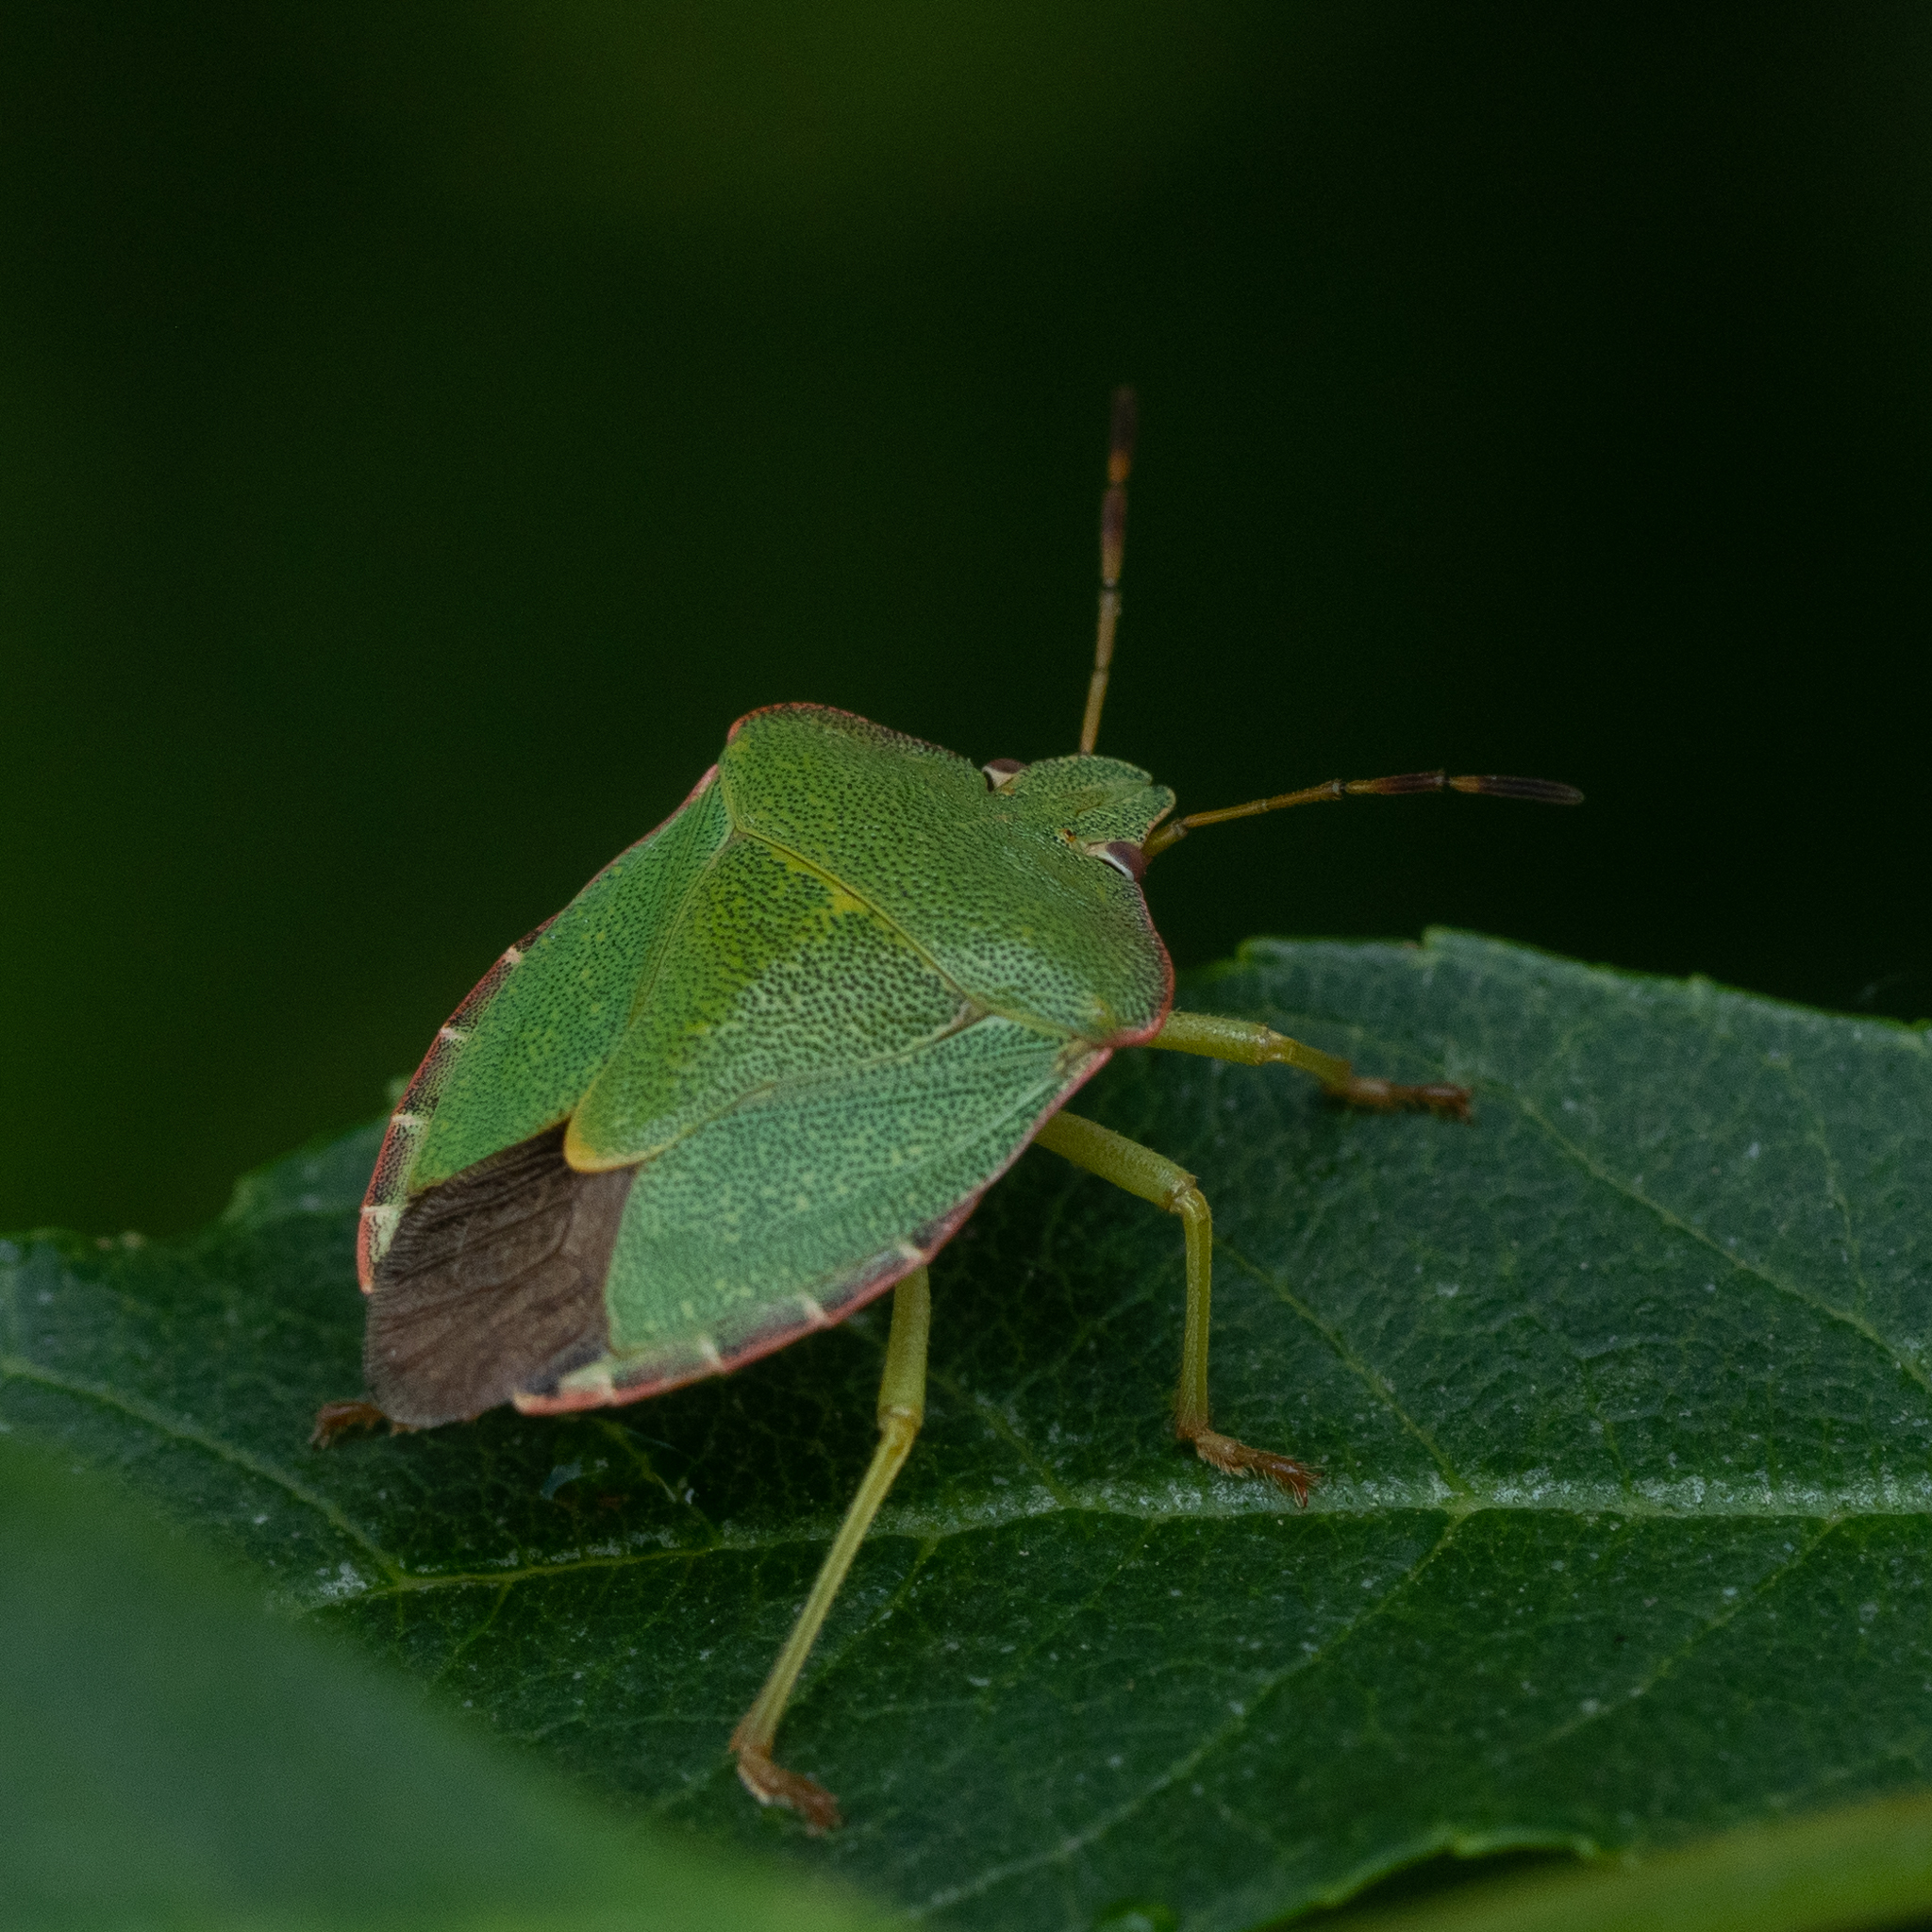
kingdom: Animalia
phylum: Arthropoda
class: Insecta
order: Hemiptera
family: Pentatomidae
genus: Palomena
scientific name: Palomena prasina
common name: Green shieldbug
